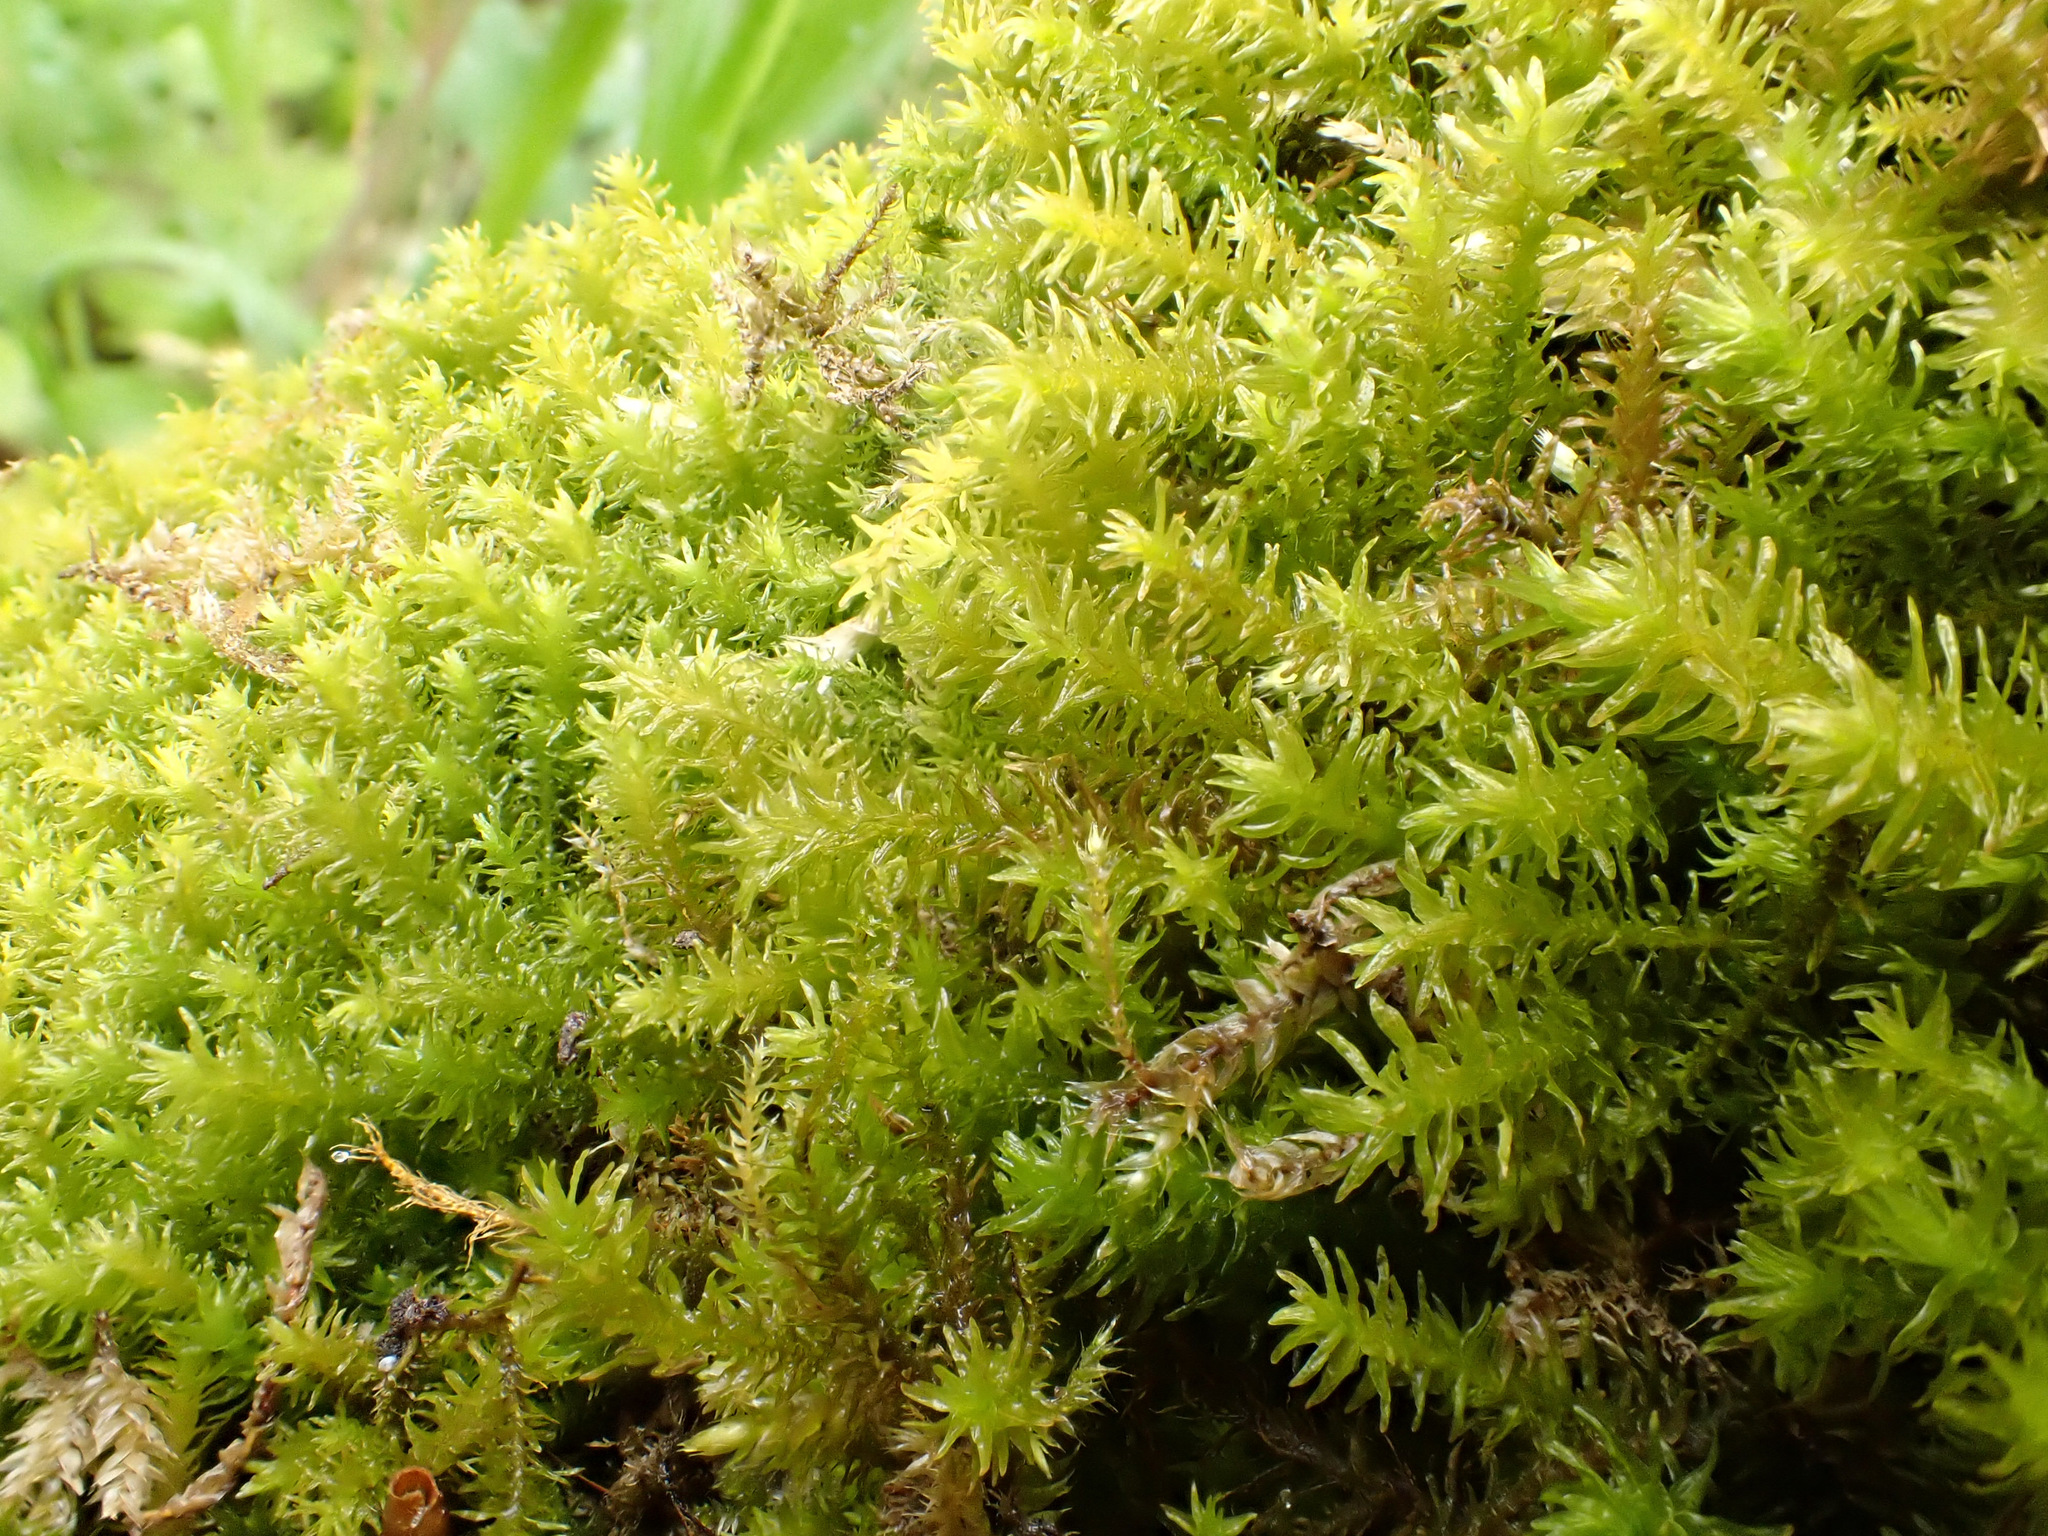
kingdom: Plantae
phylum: Bryophyta
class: Bryopsida
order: Hypnales
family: Anomodontaceae
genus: Anomodon
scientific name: Anomodon viticulosus
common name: Tall anomodon
